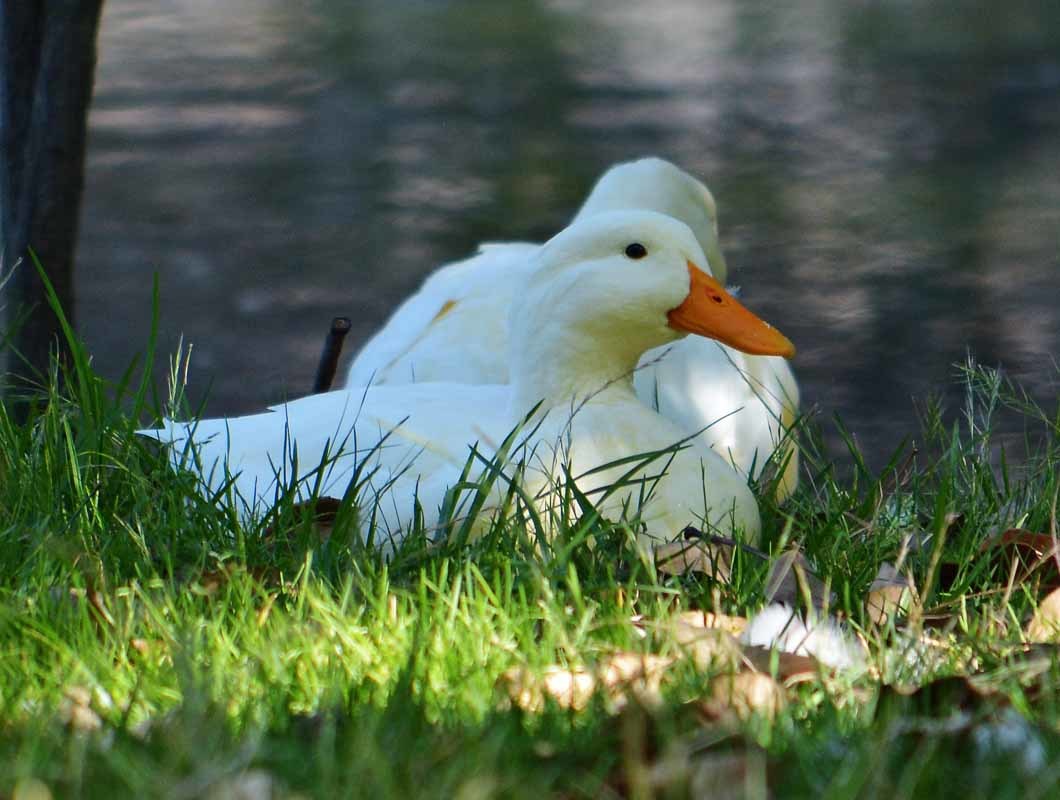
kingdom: Animalia
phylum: Chordata
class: Aves
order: Anseriformes
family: Anatidae
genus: Anas
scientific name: Anas platyrhynchos
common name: Mallard
